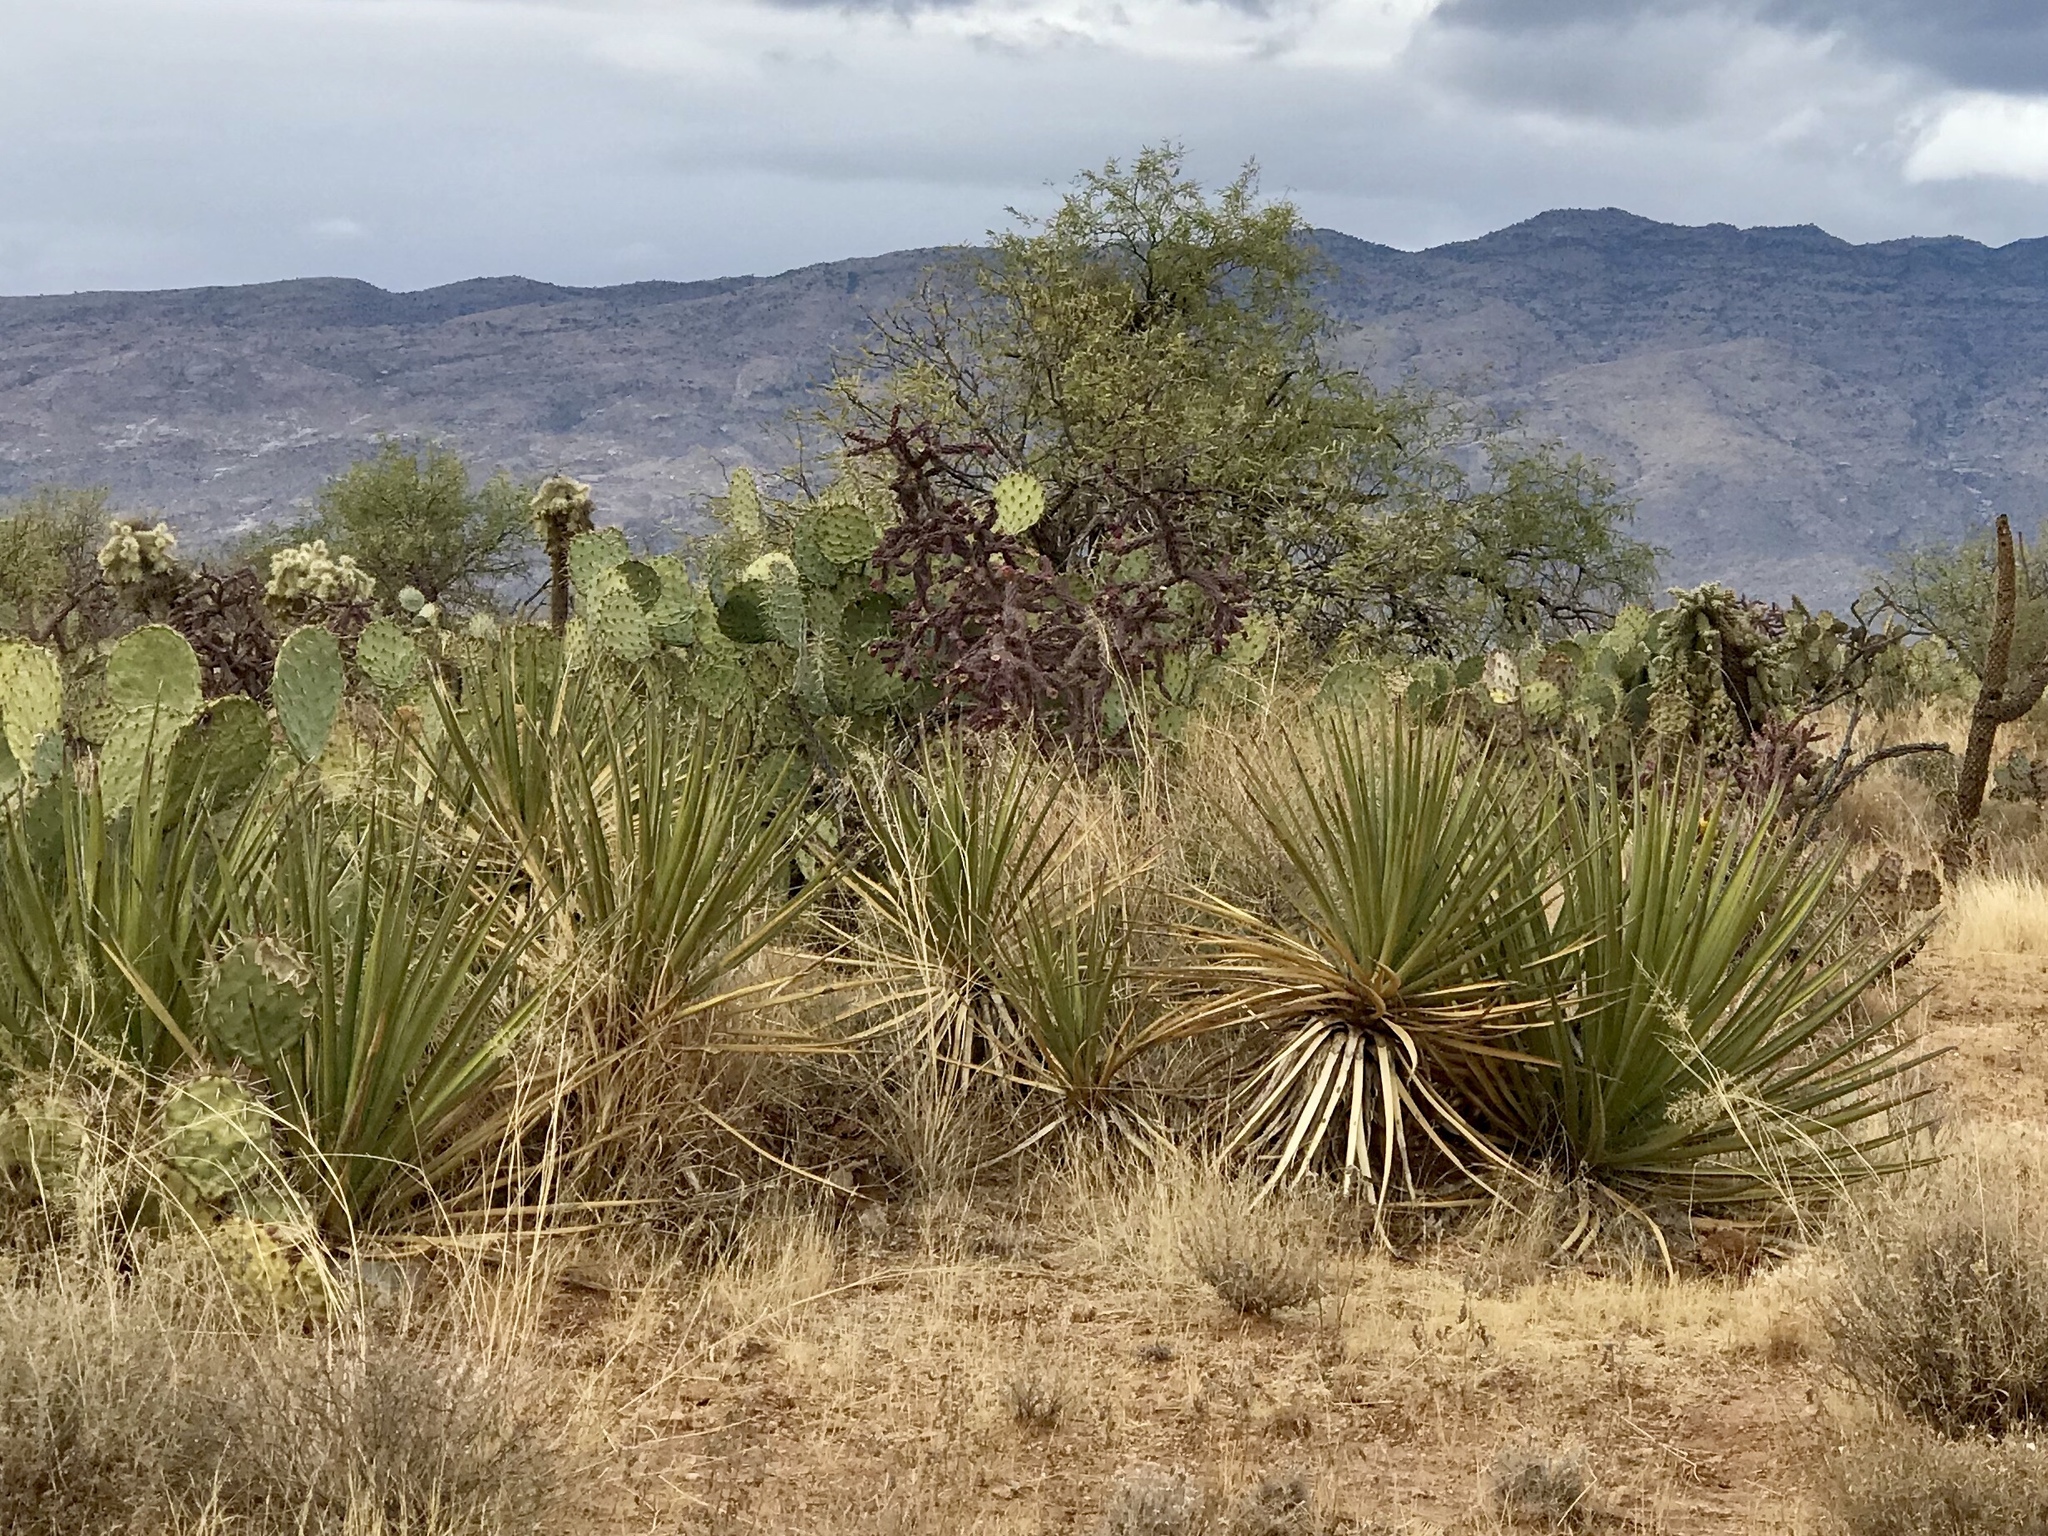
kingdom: Plantae
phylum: Tracheophyta
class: Liliopsida
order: Asparagales
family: Asparagaceae
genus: Yucca
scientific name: Yucca baccata
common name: Banana yucca
